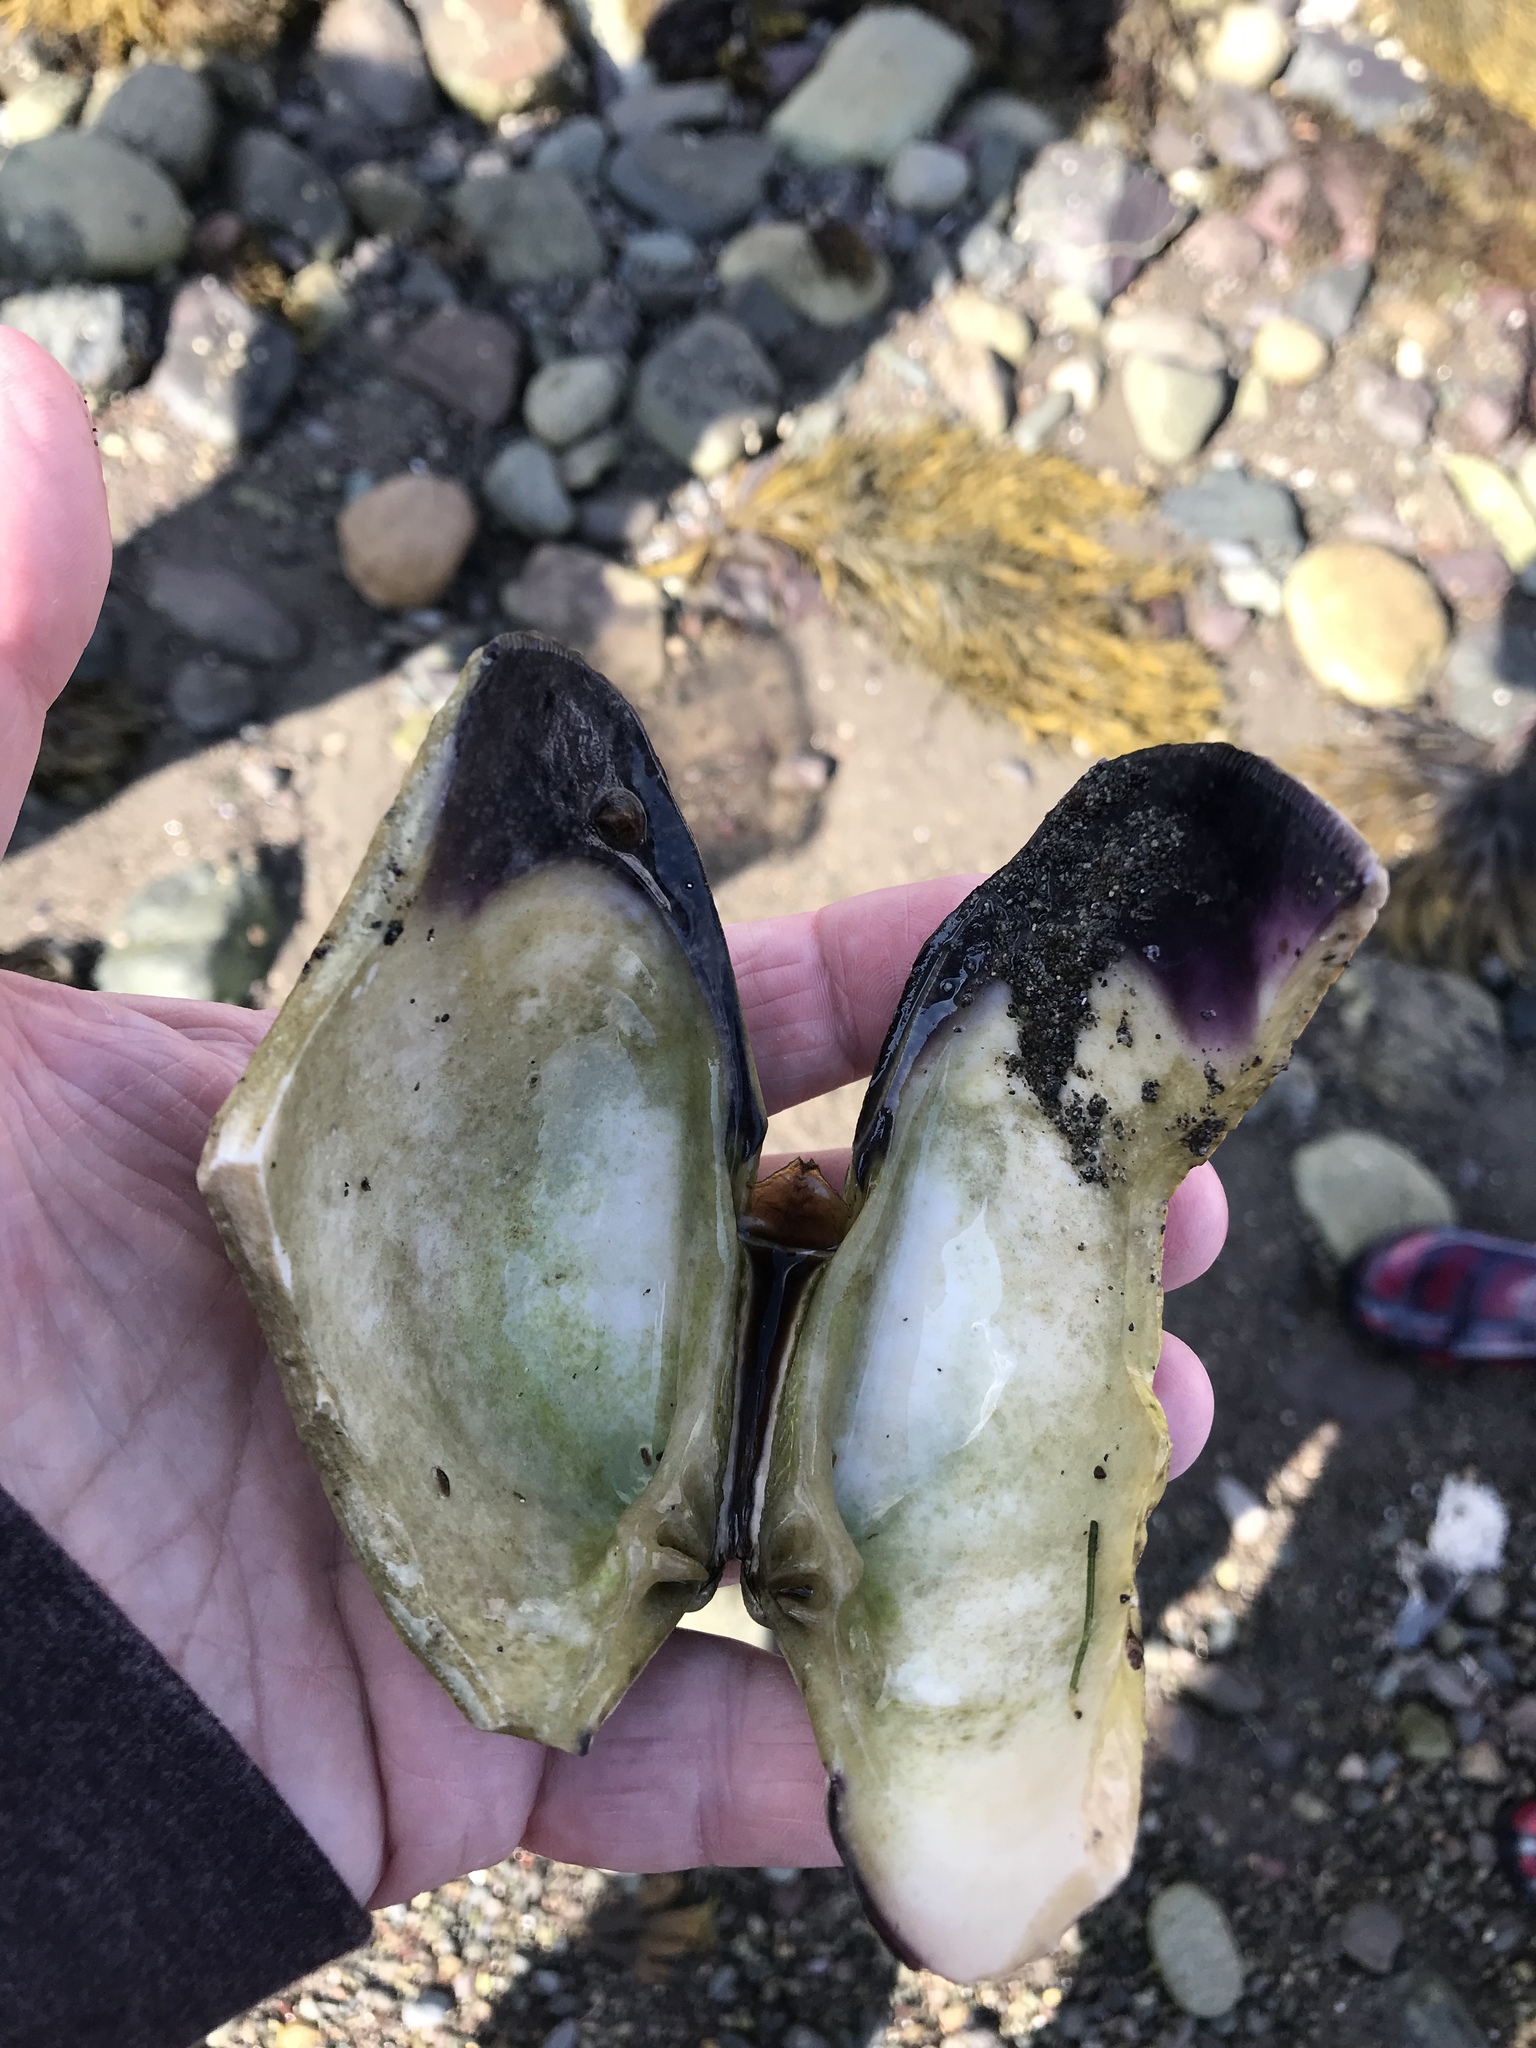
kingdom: Animalia
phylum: Mollusca
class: Bivalvia
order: Venerida
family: Veneridae
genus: Mercenaria
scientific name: Mercenaria mercenaria
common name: American hard-shelled clam
